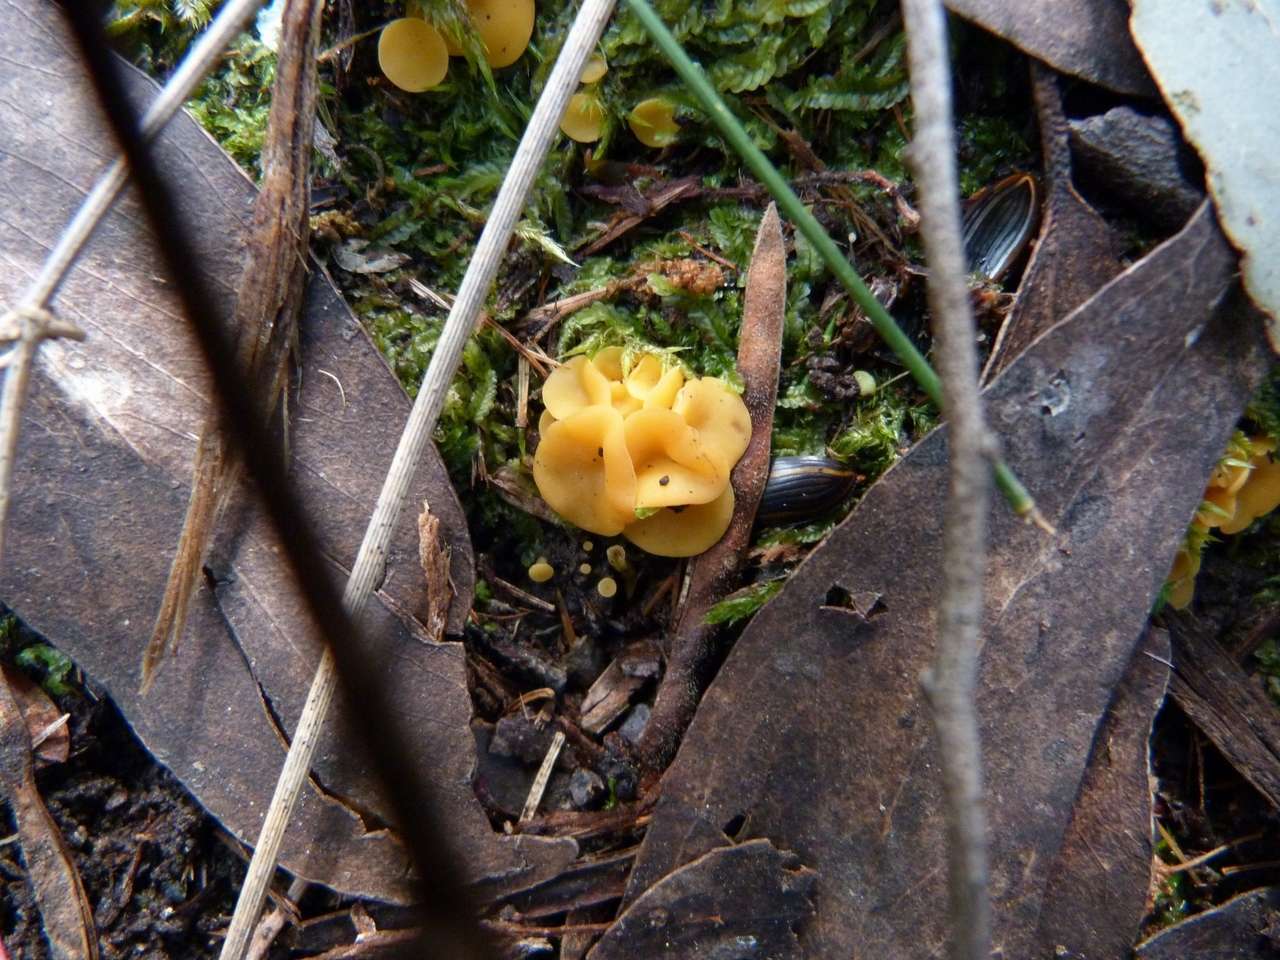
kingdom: Fungi
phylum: Ascomycota
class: Leotiomycetes
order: Helotiales
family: Helotiaceae
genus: Phaeohelotium
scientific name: Phaeohelotium baileyanum
